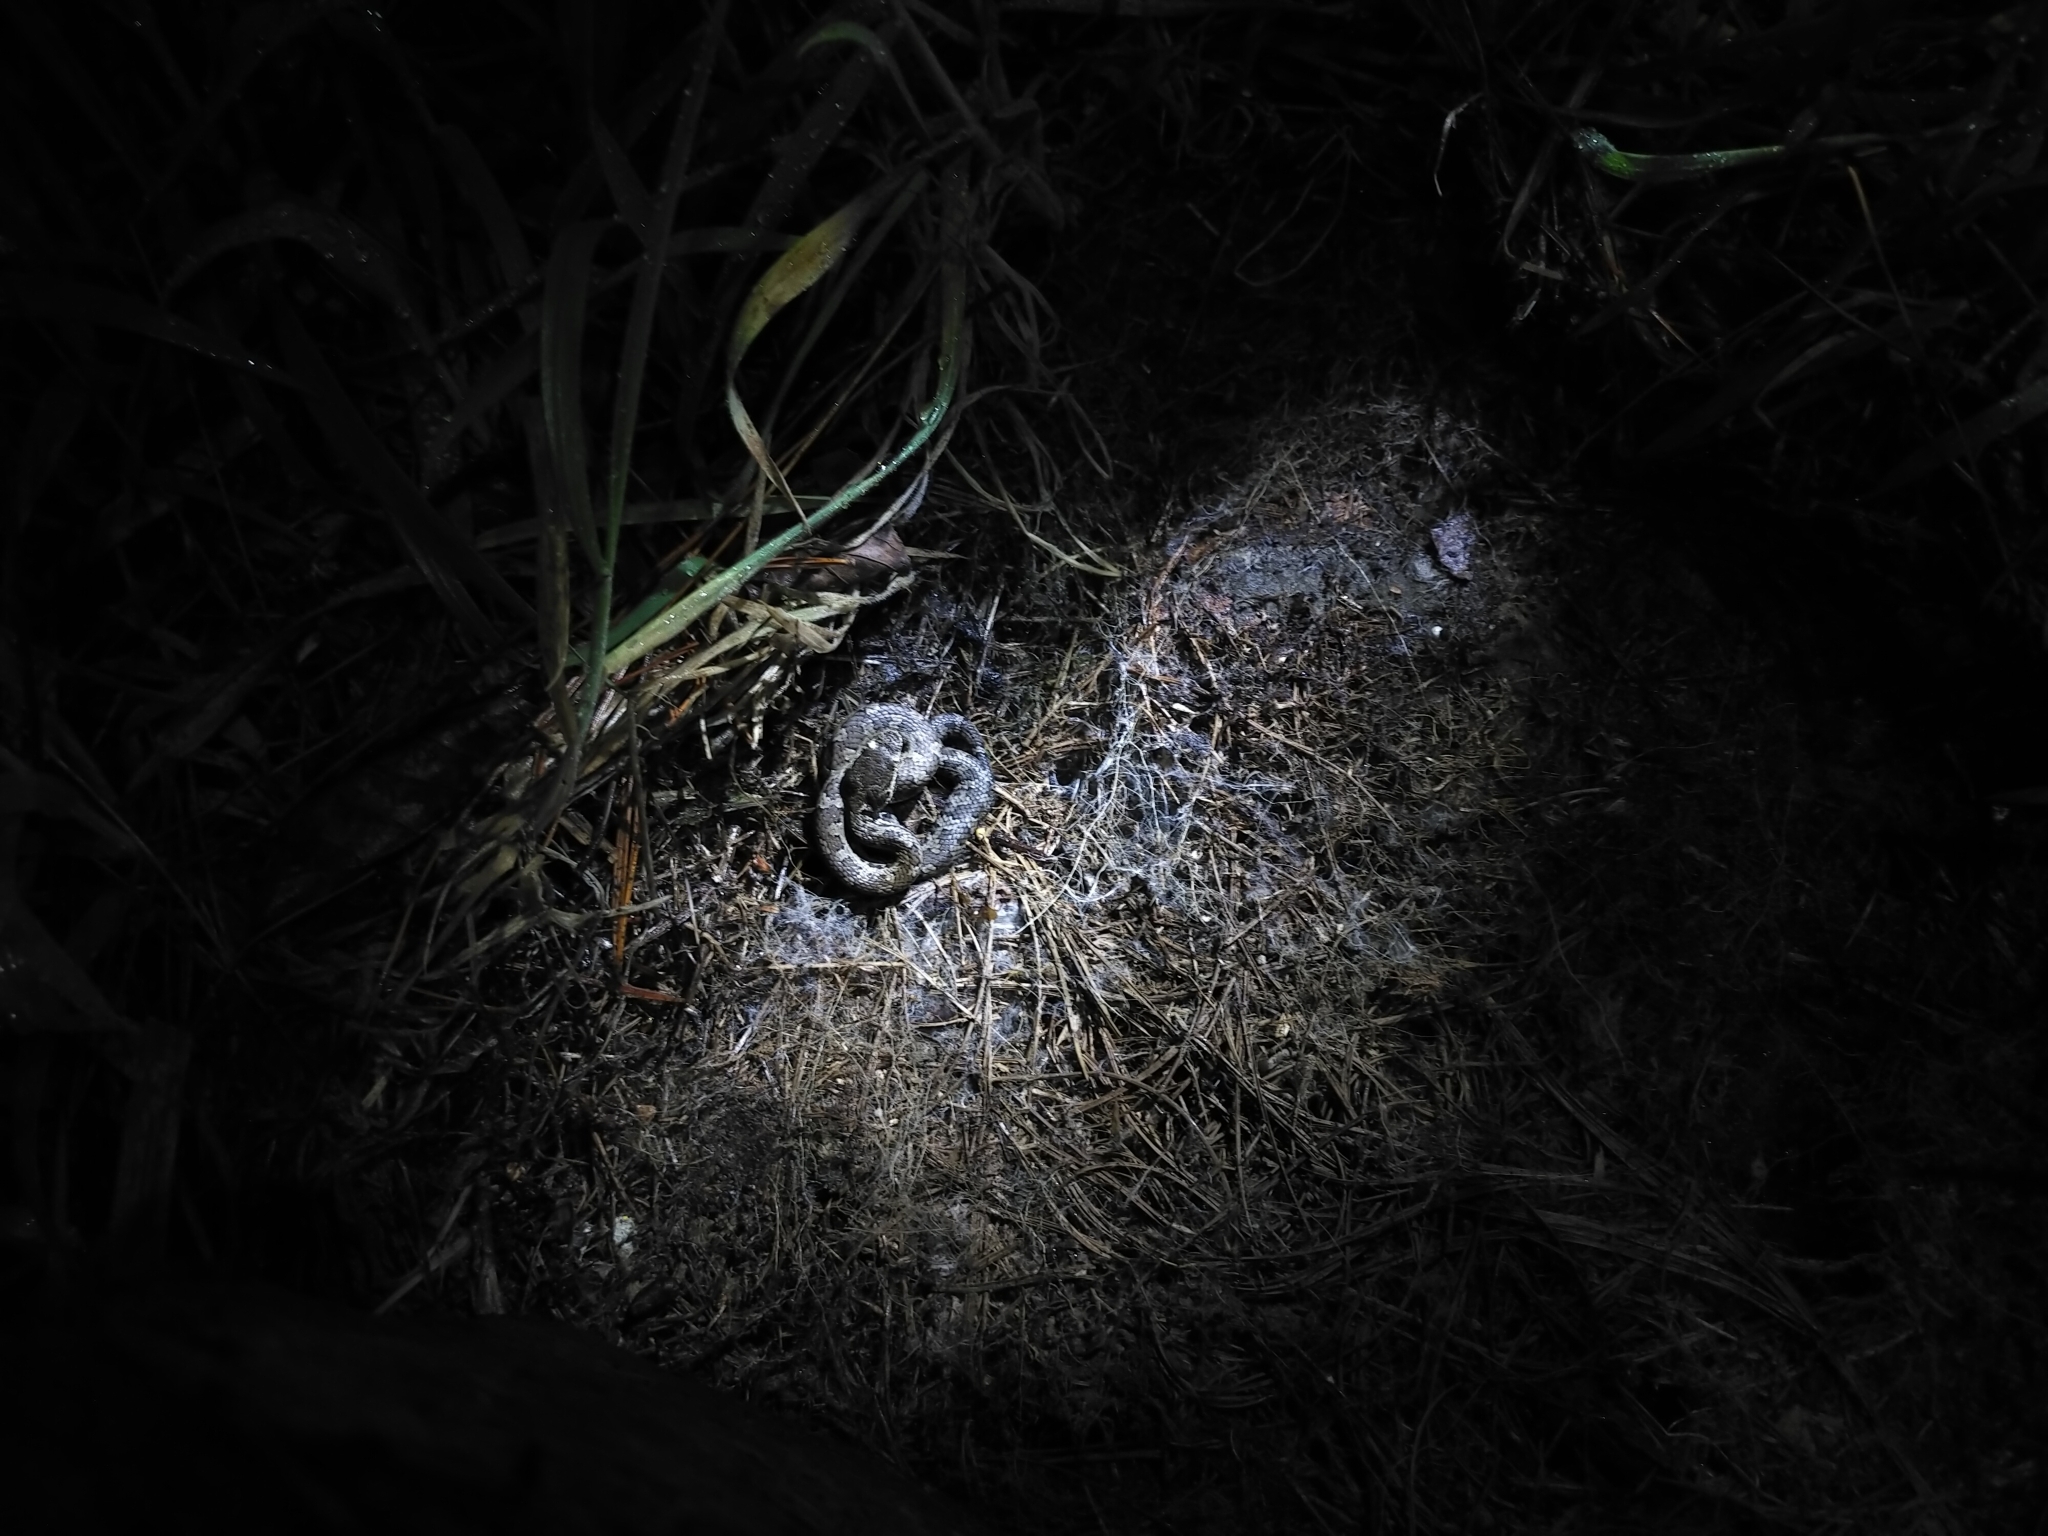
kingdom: Animalia
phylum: Chordata
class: Squamata
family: Viperidae
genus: Trimeresurus
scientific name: Trimeresurus gracilis
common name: Taiwan pit viper
